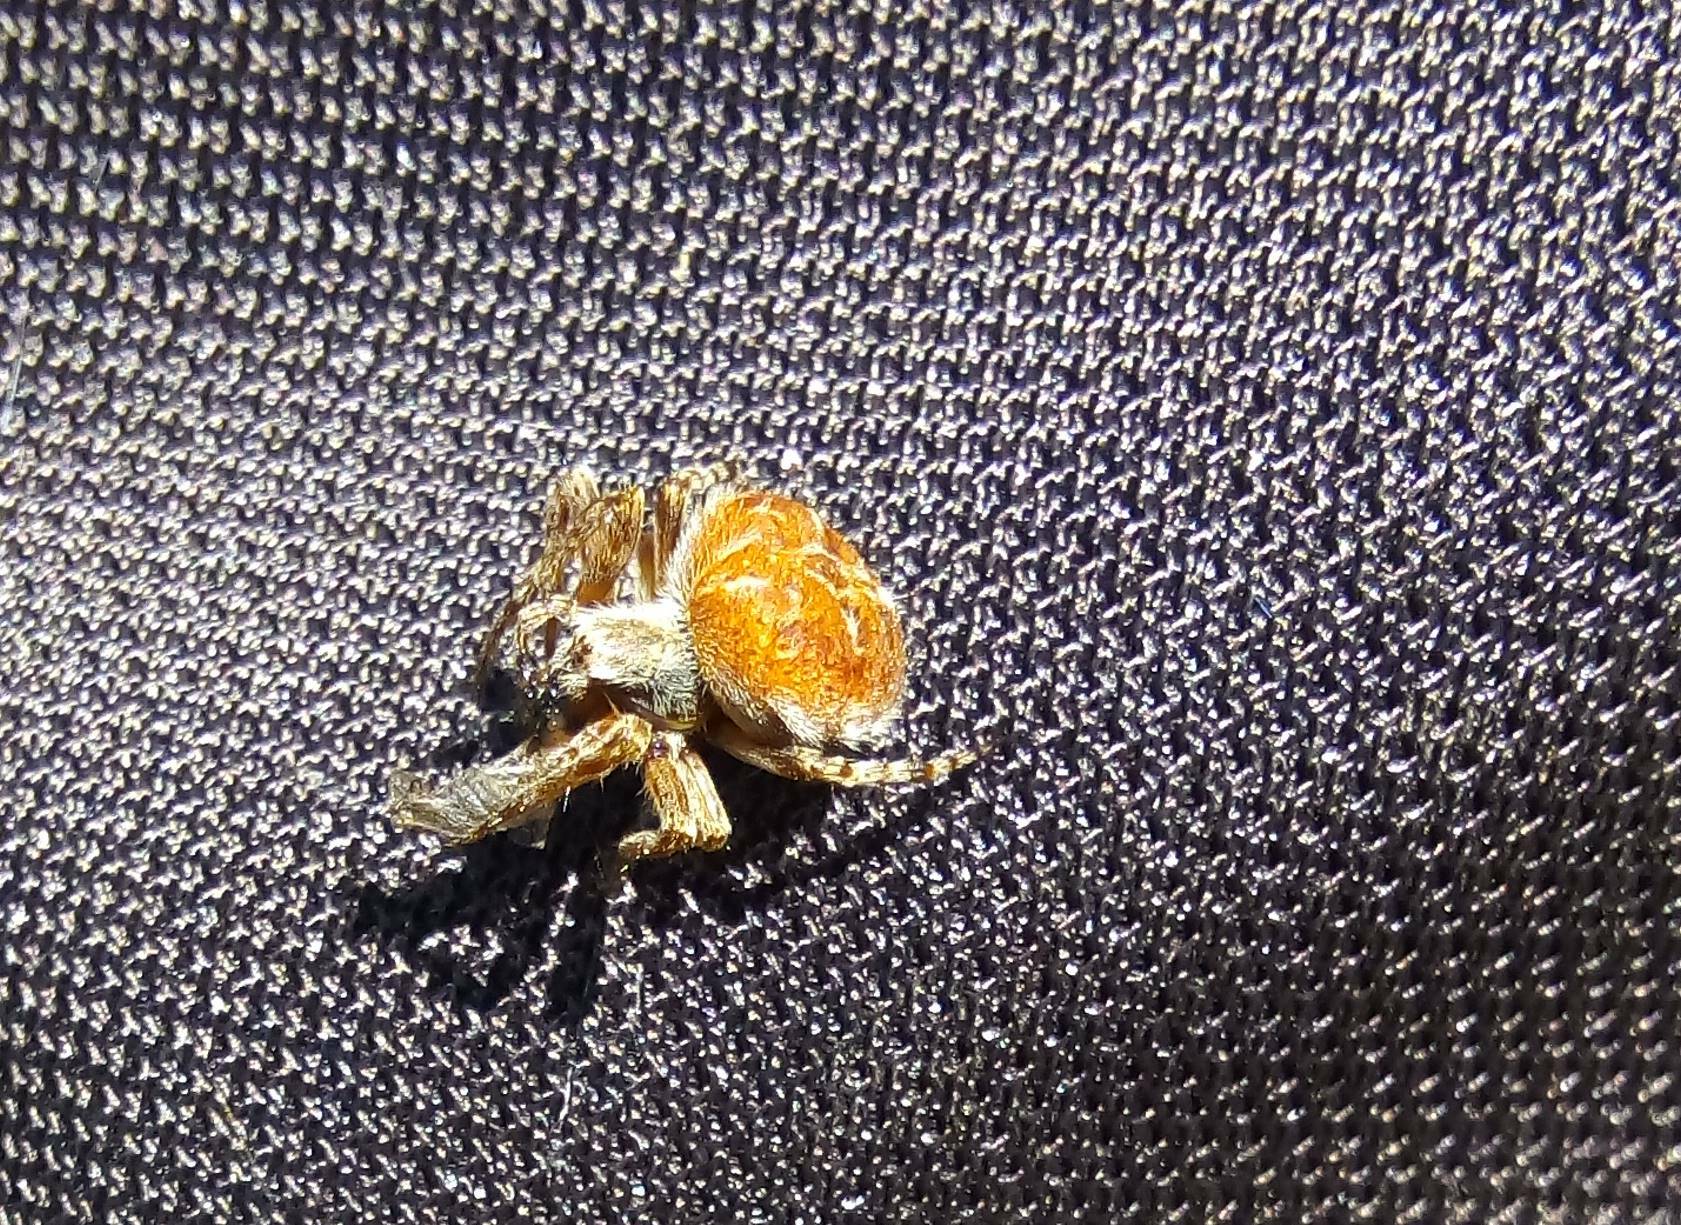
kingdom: Animalia
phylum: Arthropoda
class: Arachnida
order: Araneae
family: Araneidae
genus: Agalenatea
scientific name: Agalenatea redii
